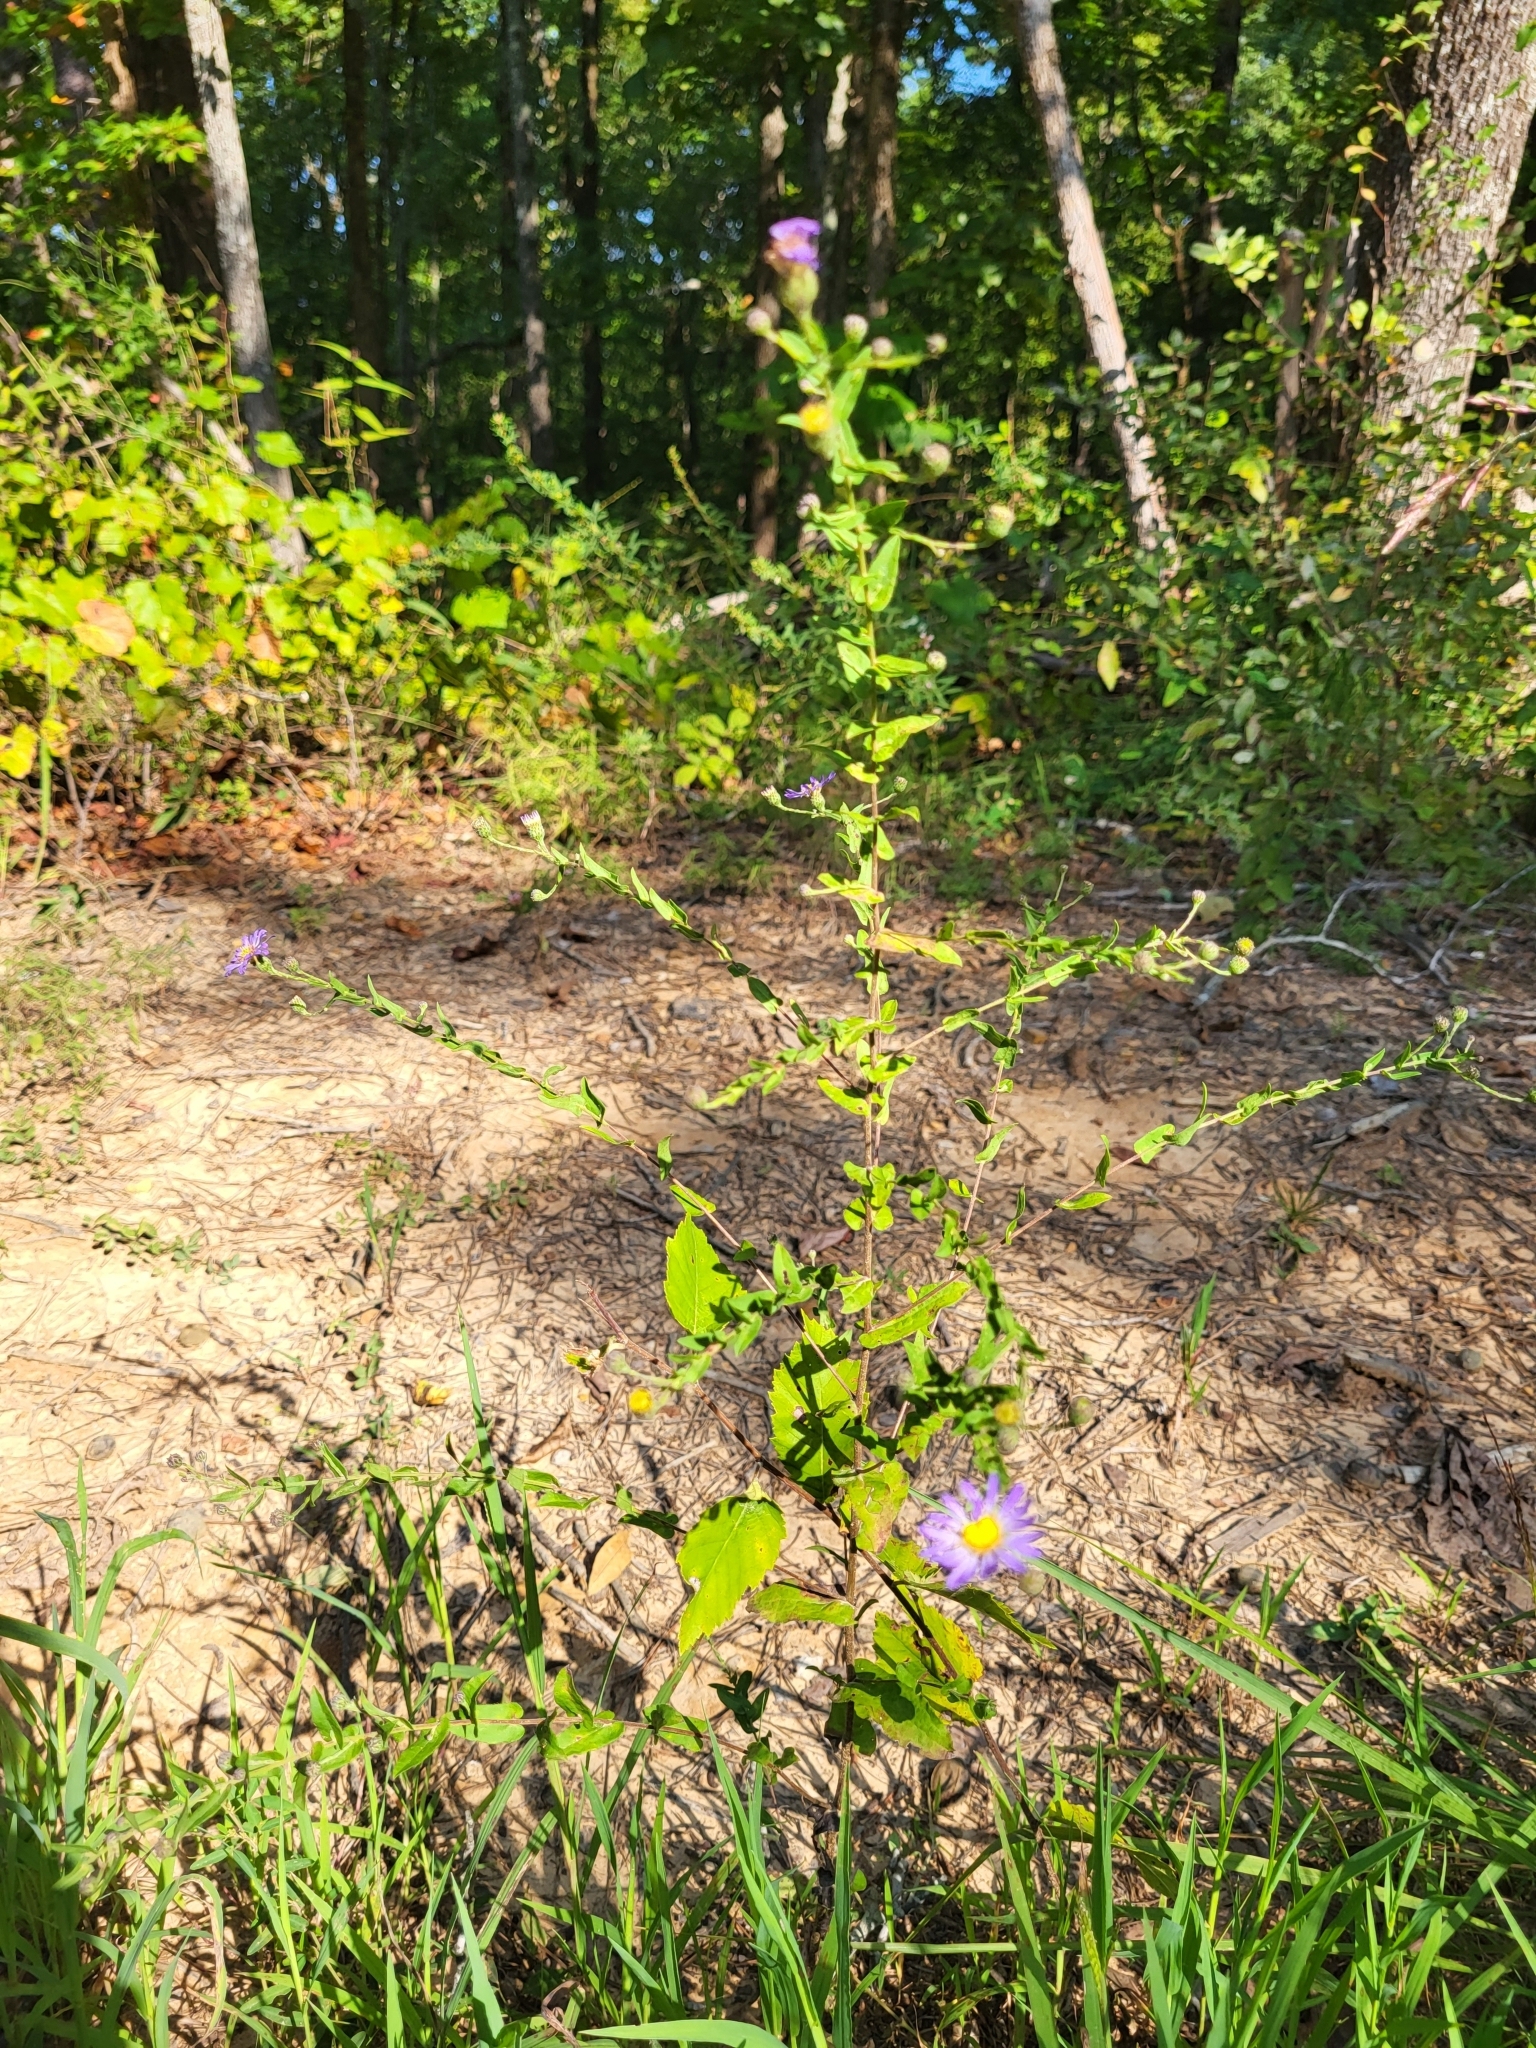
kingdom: Plantae
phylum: Tracheophyta
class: Magnoliopsida
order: Asterales
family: Asteraceae
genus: Symphyotrichum
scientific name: Symphyotrichum patens
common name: Late purple aster
